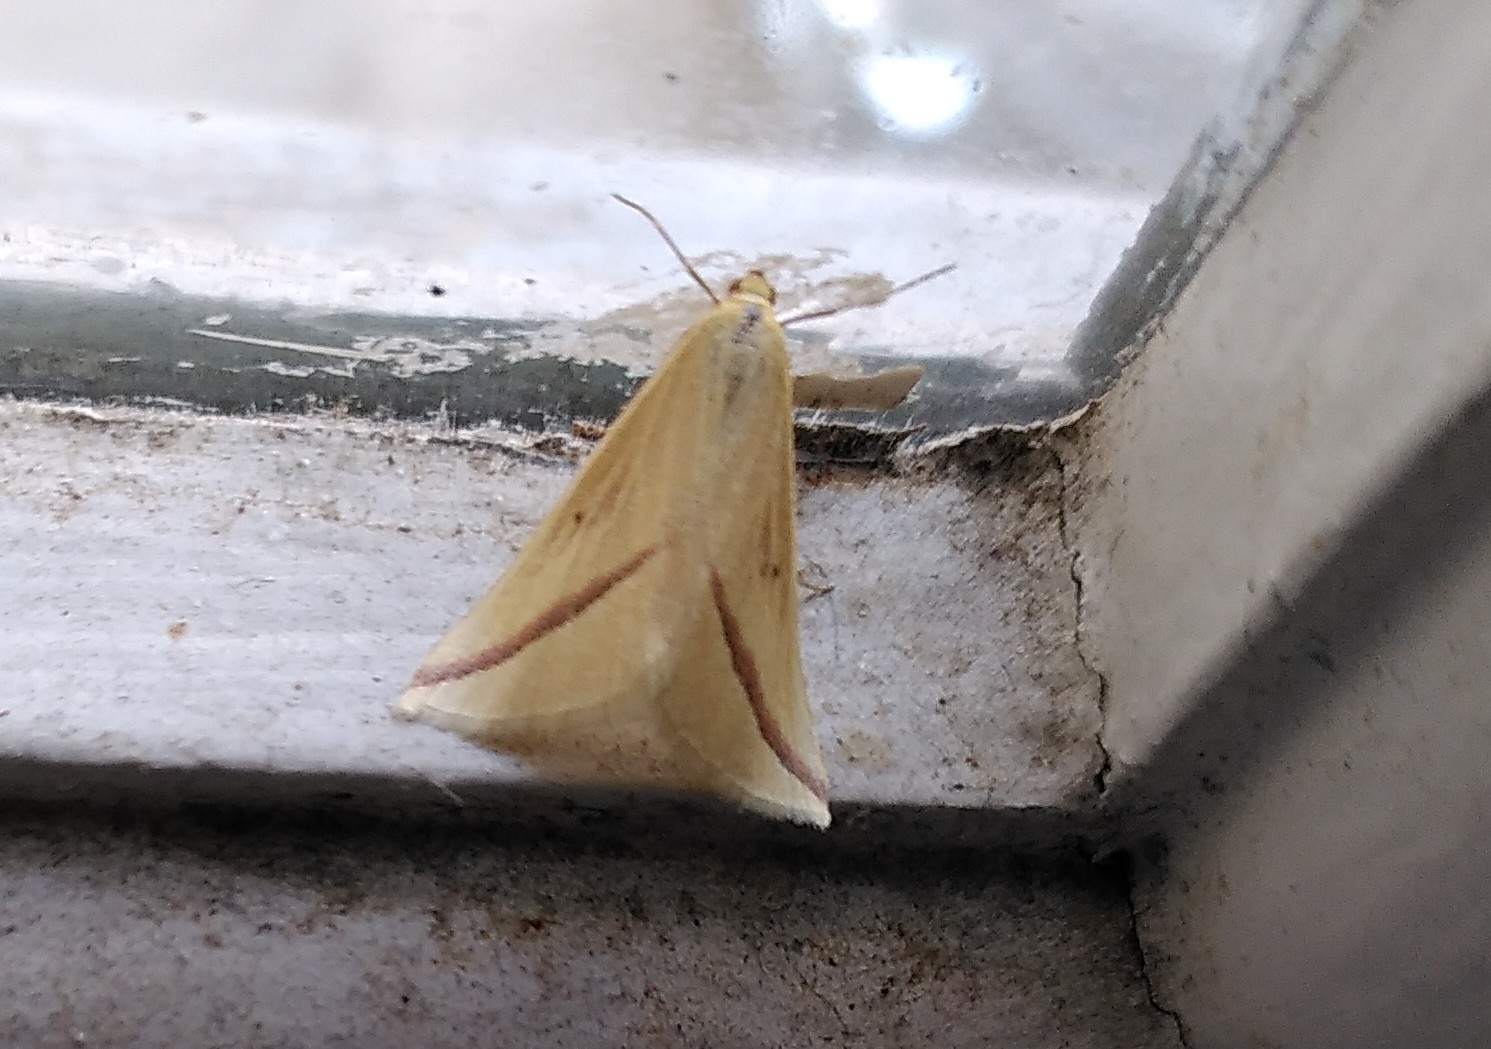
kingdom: Animalia
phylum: Arthropoda
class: Insecta
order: Lepidoptera
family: Geometridae
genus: Rhodometra
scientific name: Rhodometra sacraria
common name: Vestal
